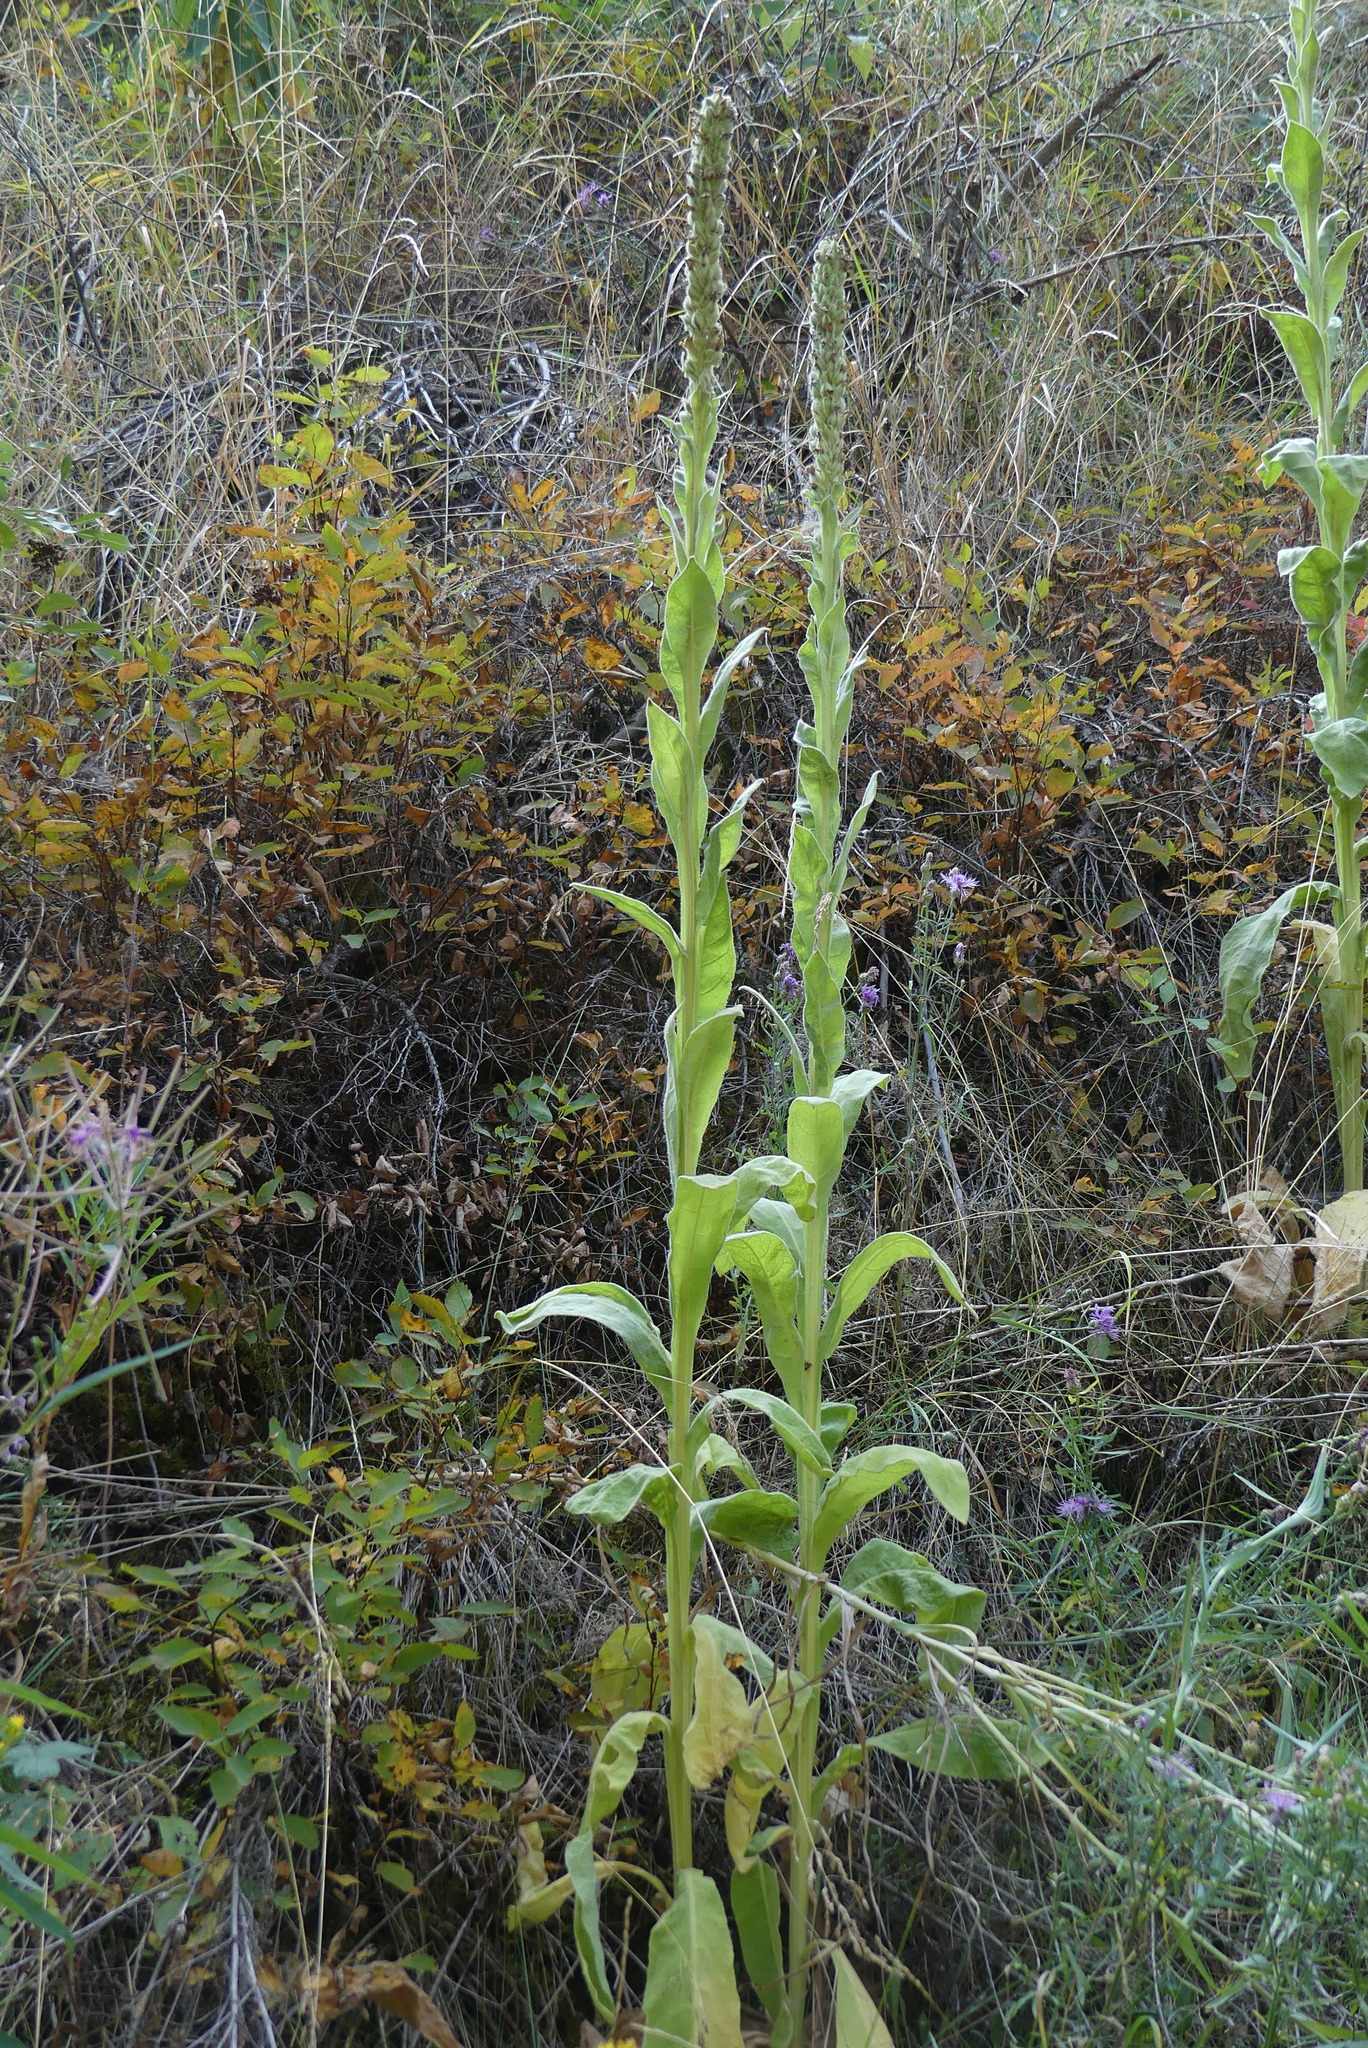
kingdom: Plantae
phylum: Tracheophyta
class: Magnoliopsida
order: Lamiales
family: Scrophulariaceae
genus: Verbascum
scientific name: Verbascum thapsus
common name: Common mullein
